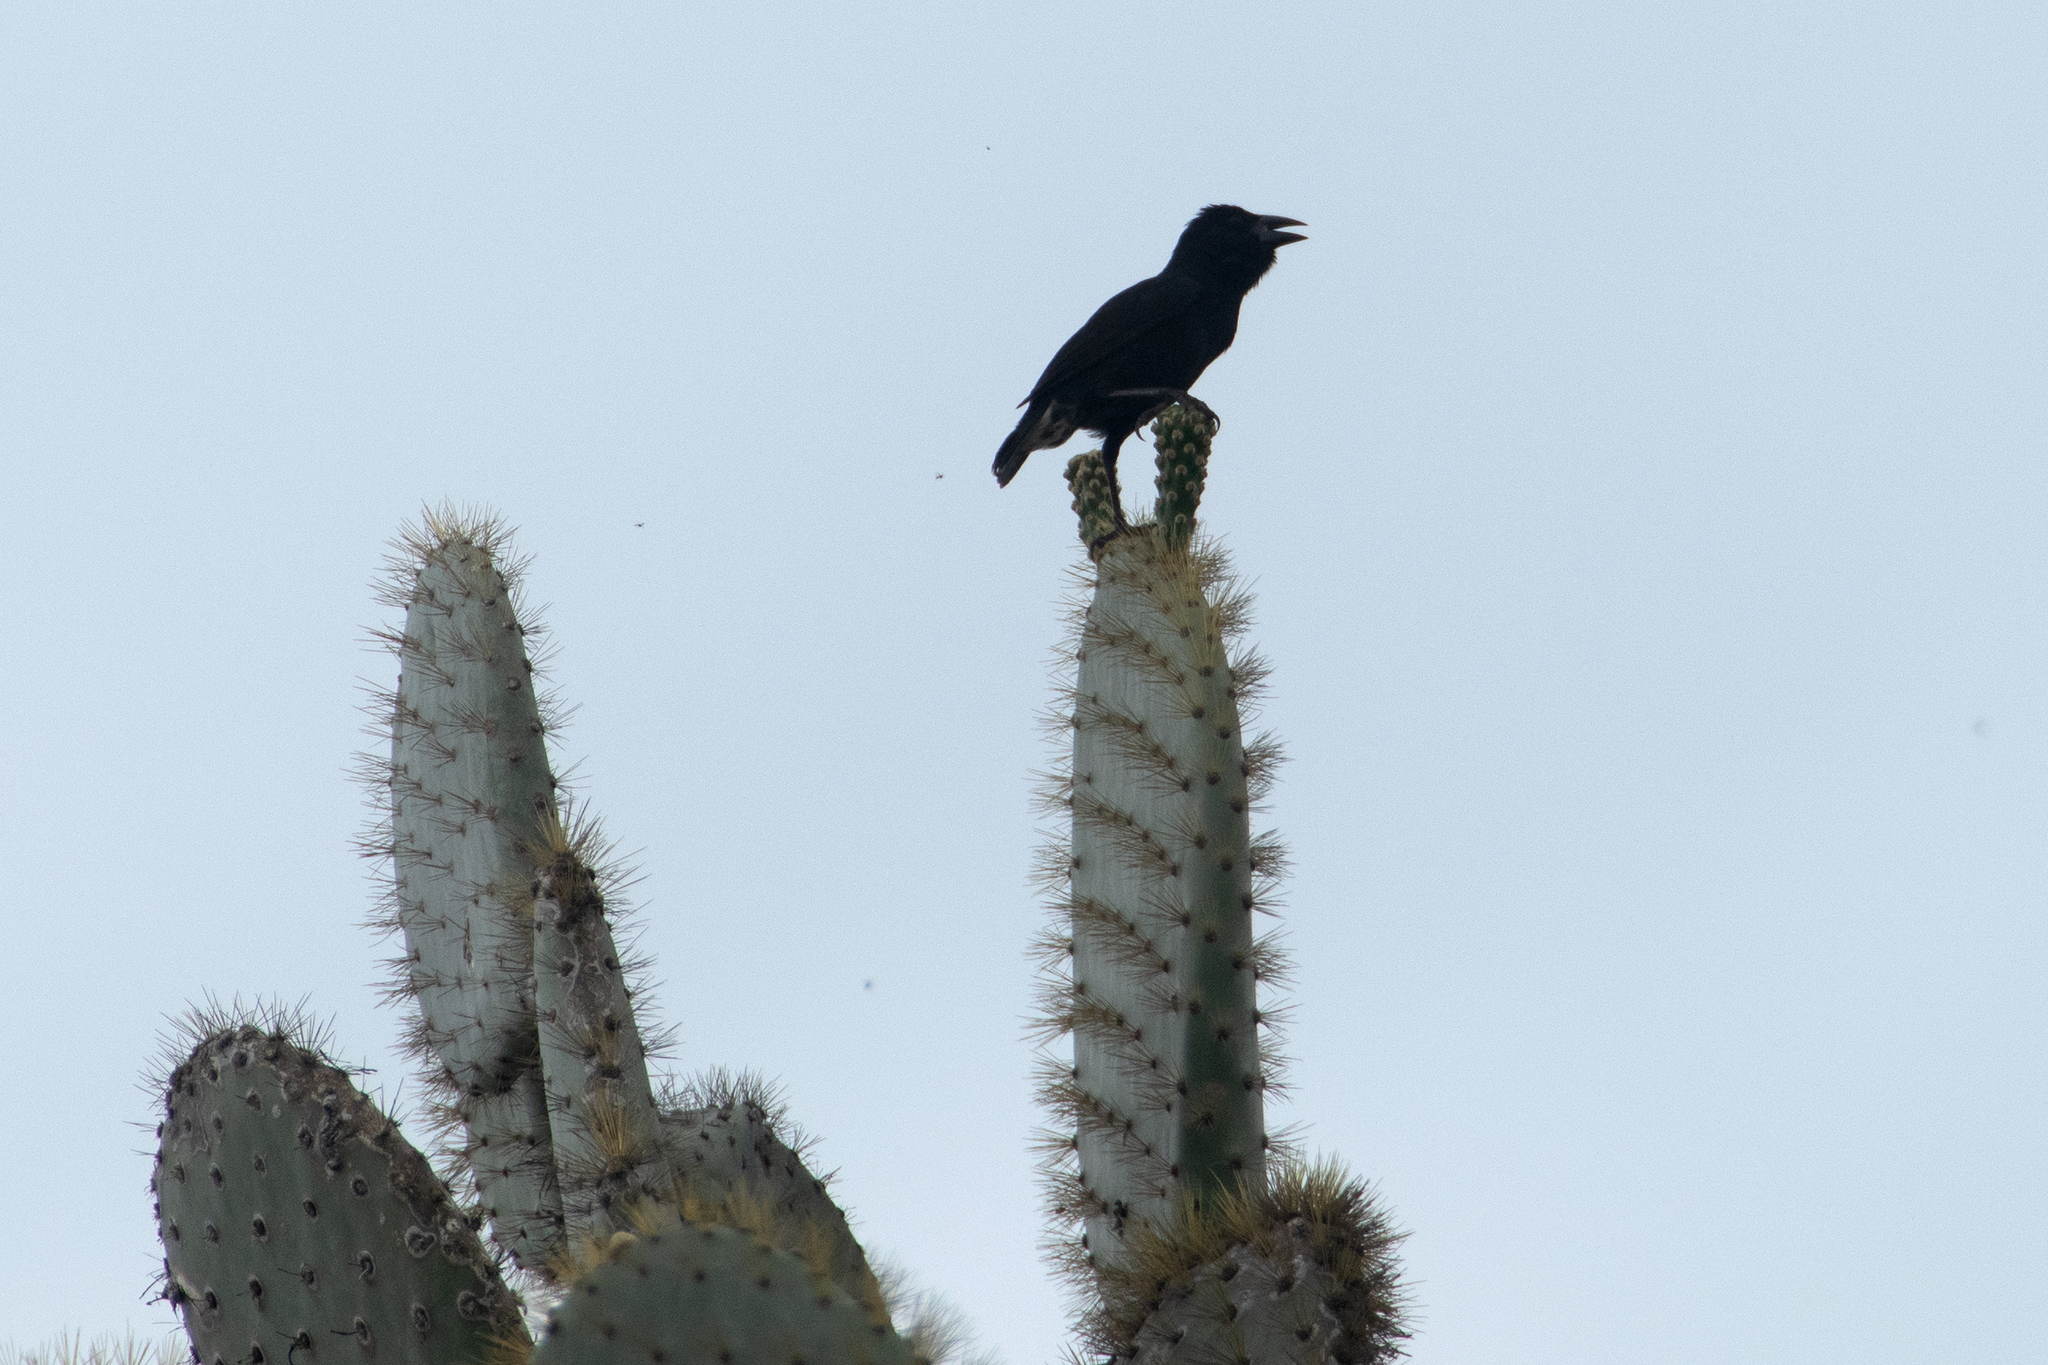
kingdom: Animalia
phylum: Chordata
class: Aves
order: Passeriformes
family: Thraupidae
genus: Geospiza
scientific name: Geospiza scandens
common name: Common cactus-finch
